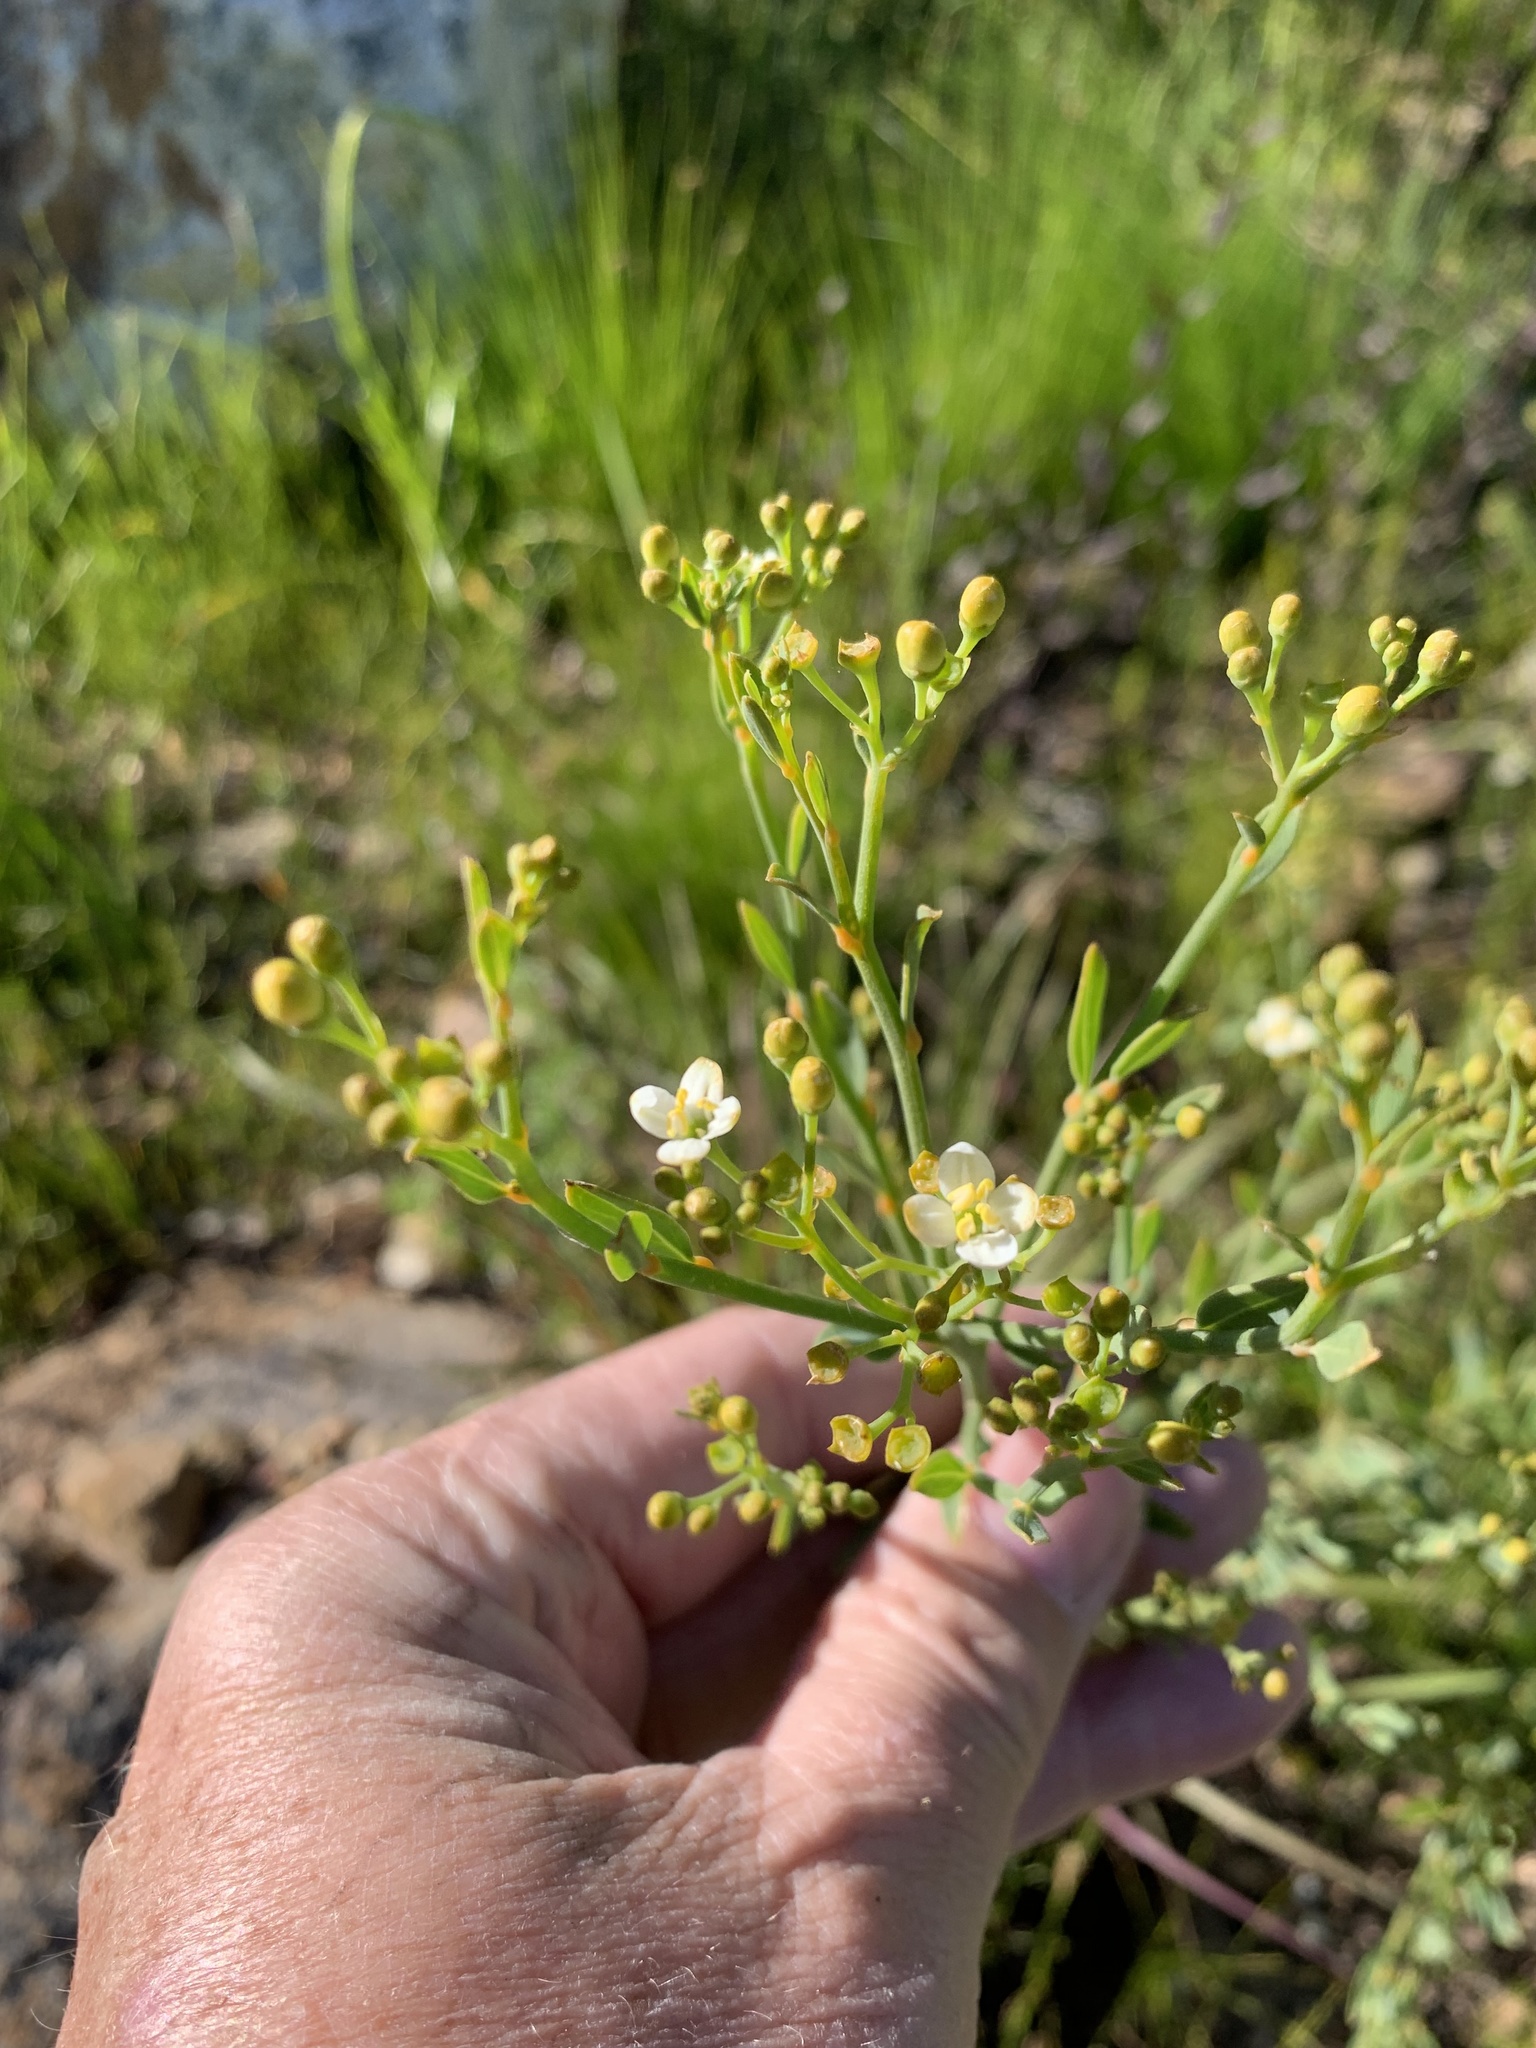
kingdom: Plantae
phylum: Tracheophyta
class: Magnoliopsida
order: Solanales
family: Montiniaceae
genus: Montinia
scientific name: Montinia caryophyllacea
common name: Wild clove-bush
